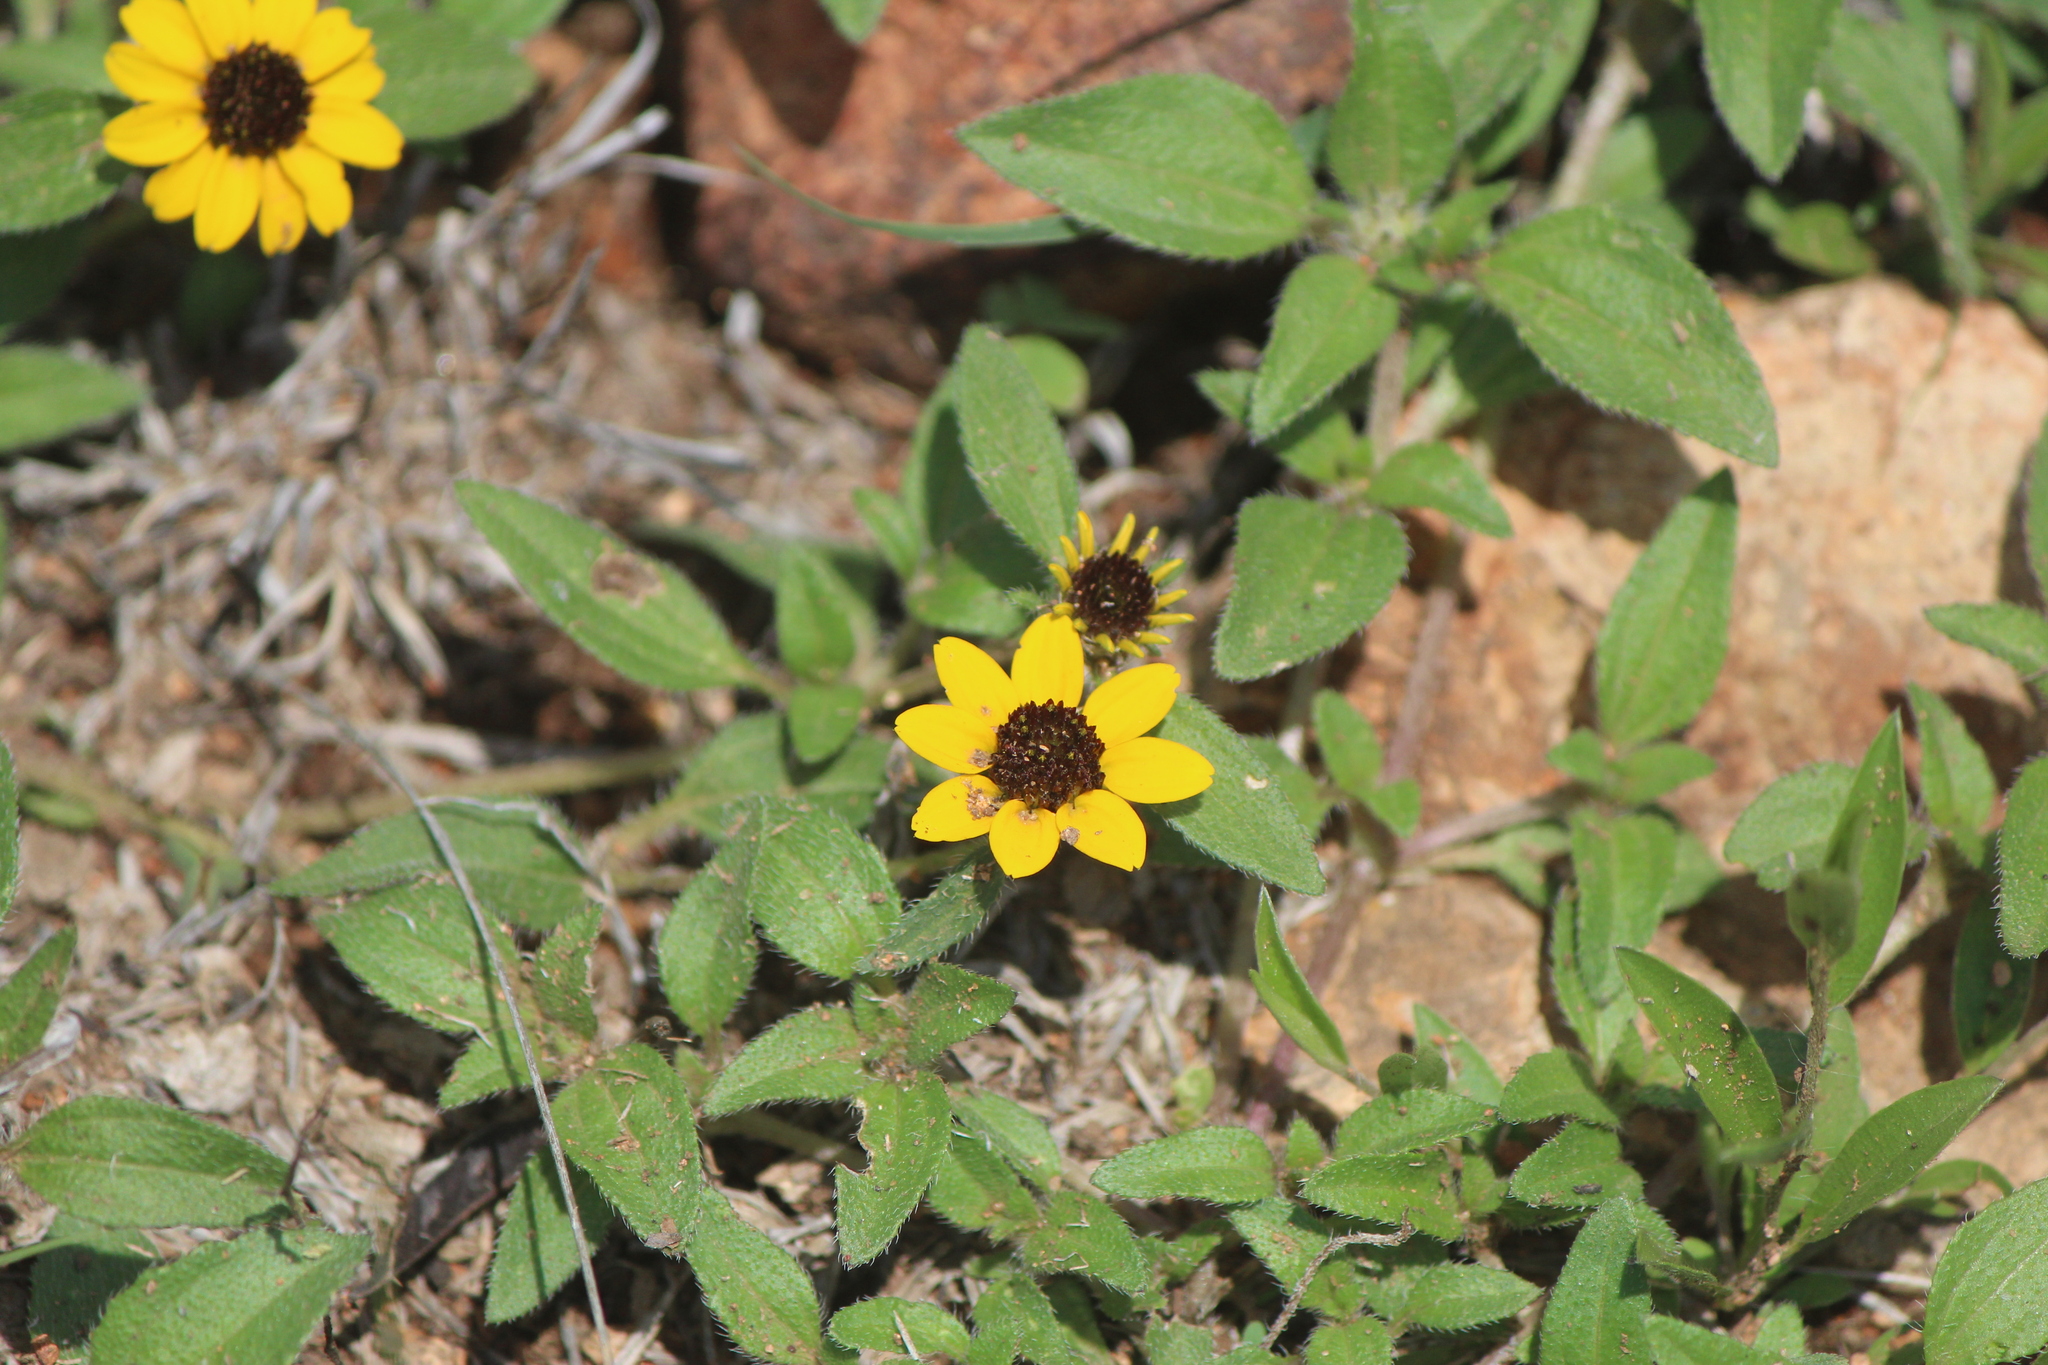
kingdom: Plantae
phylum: Tracheophyta
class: Magnoliopsida
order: Asterales
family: Asteraceae
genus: Sanvitalia
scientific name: Sanvitalia procumbens
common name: Mexican creeping zinnia
